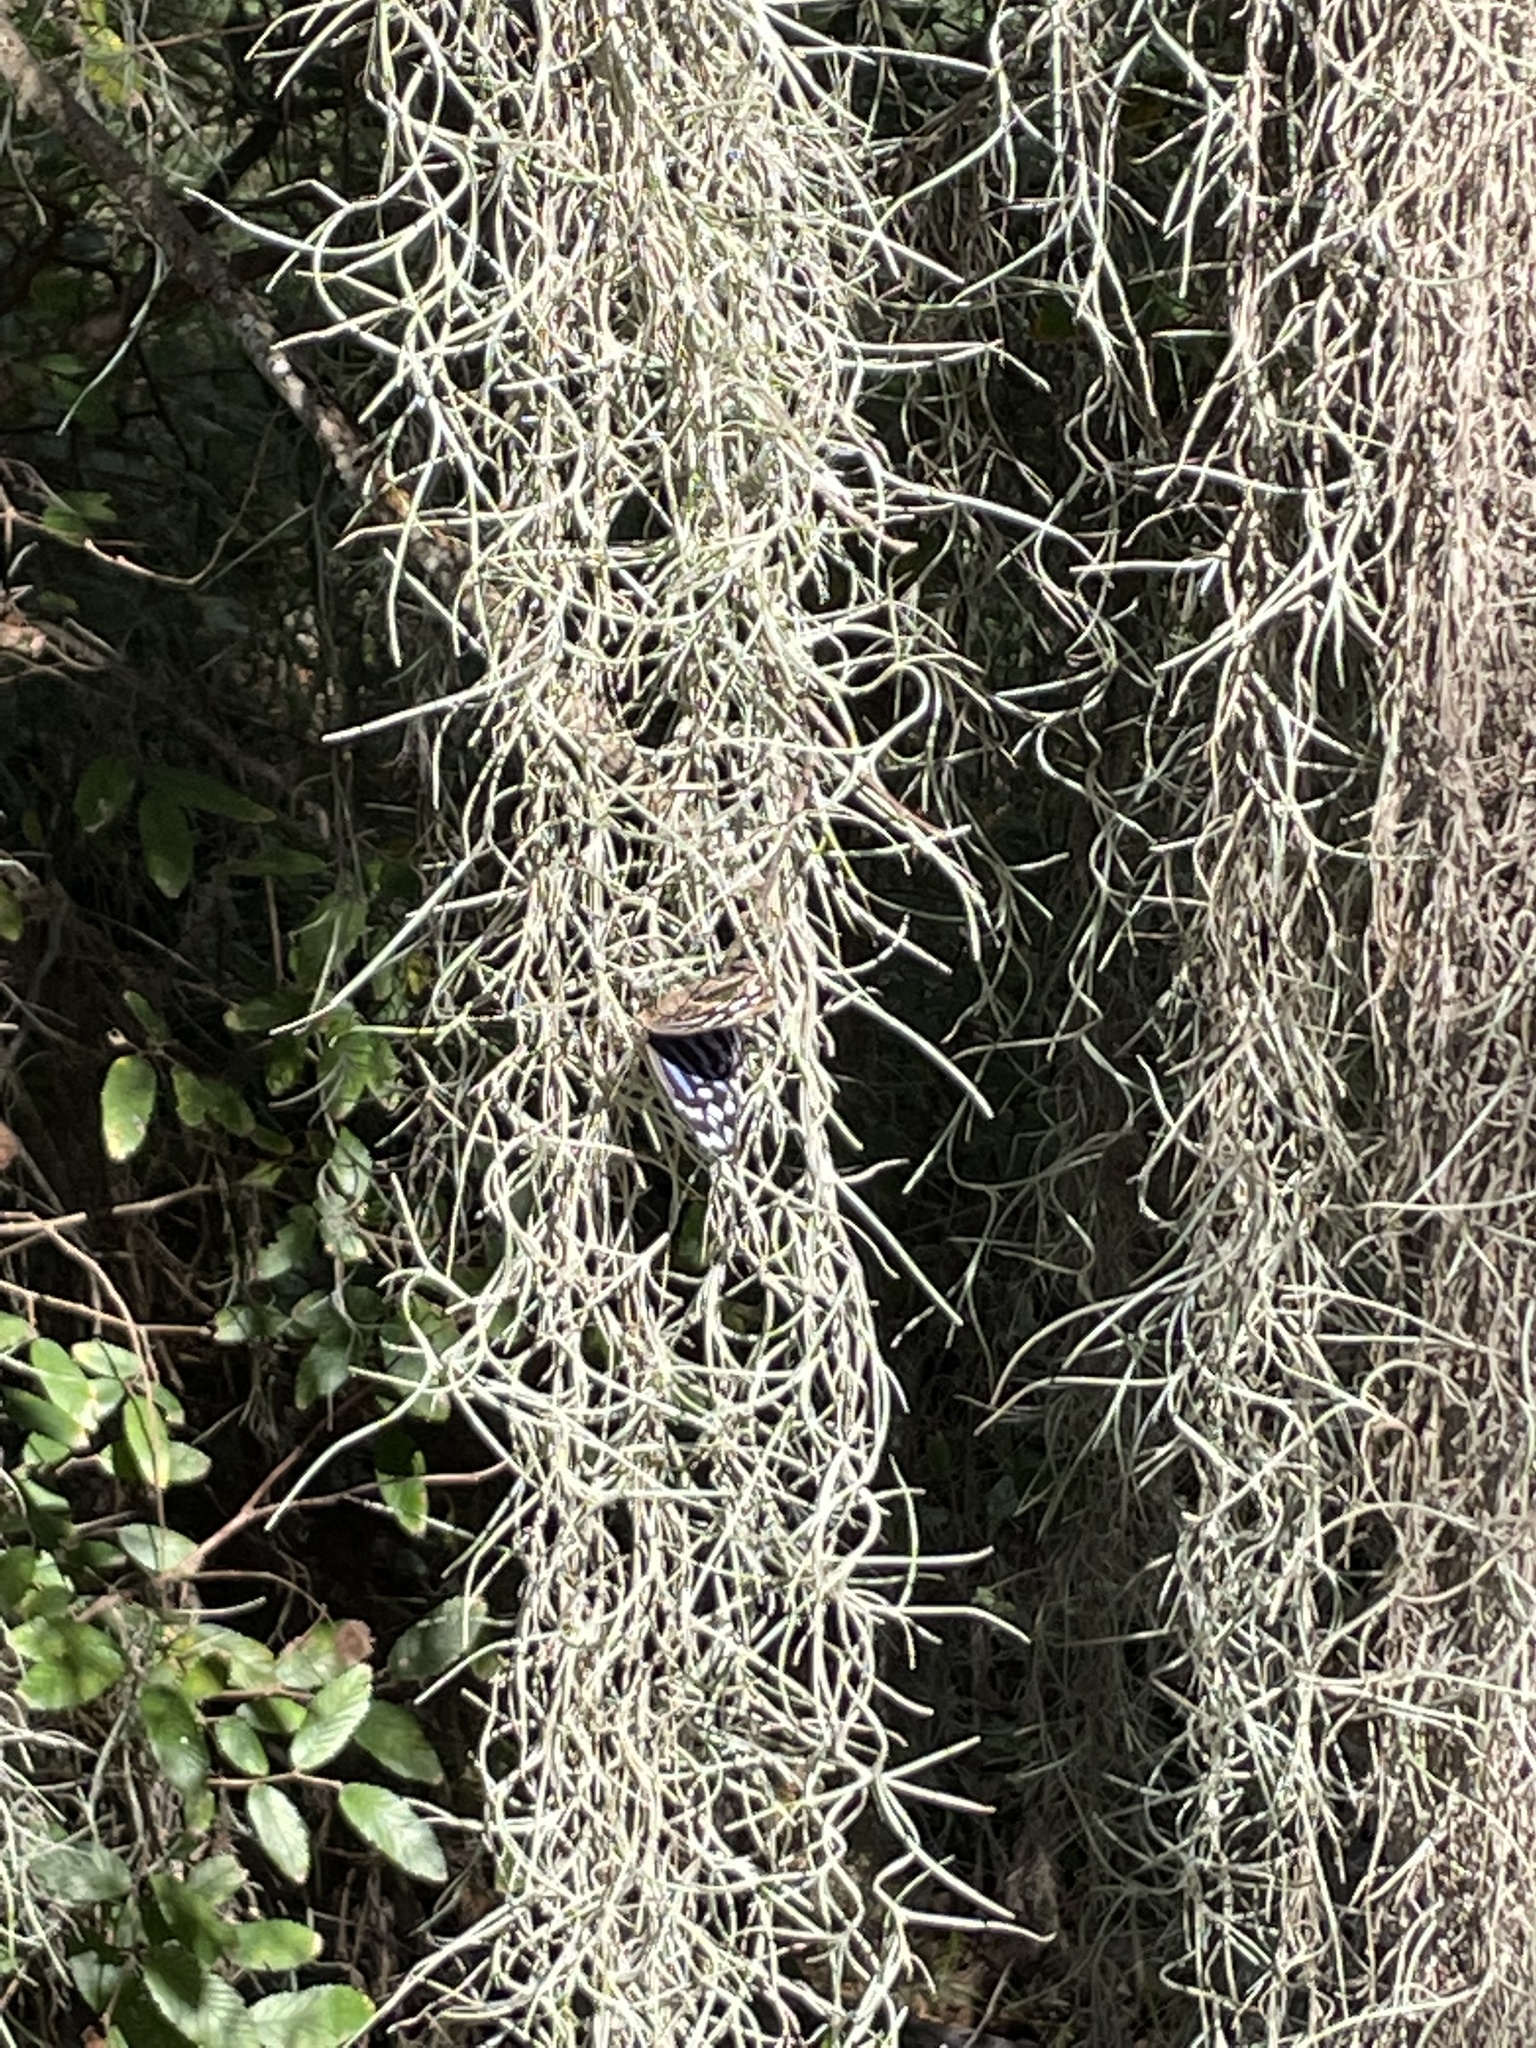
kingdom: Animalia
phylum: Arthropoda
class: Insecta
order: Lepidoptera
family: Nymphalidae
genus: Myscelia
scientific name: Myscelia ethusa
